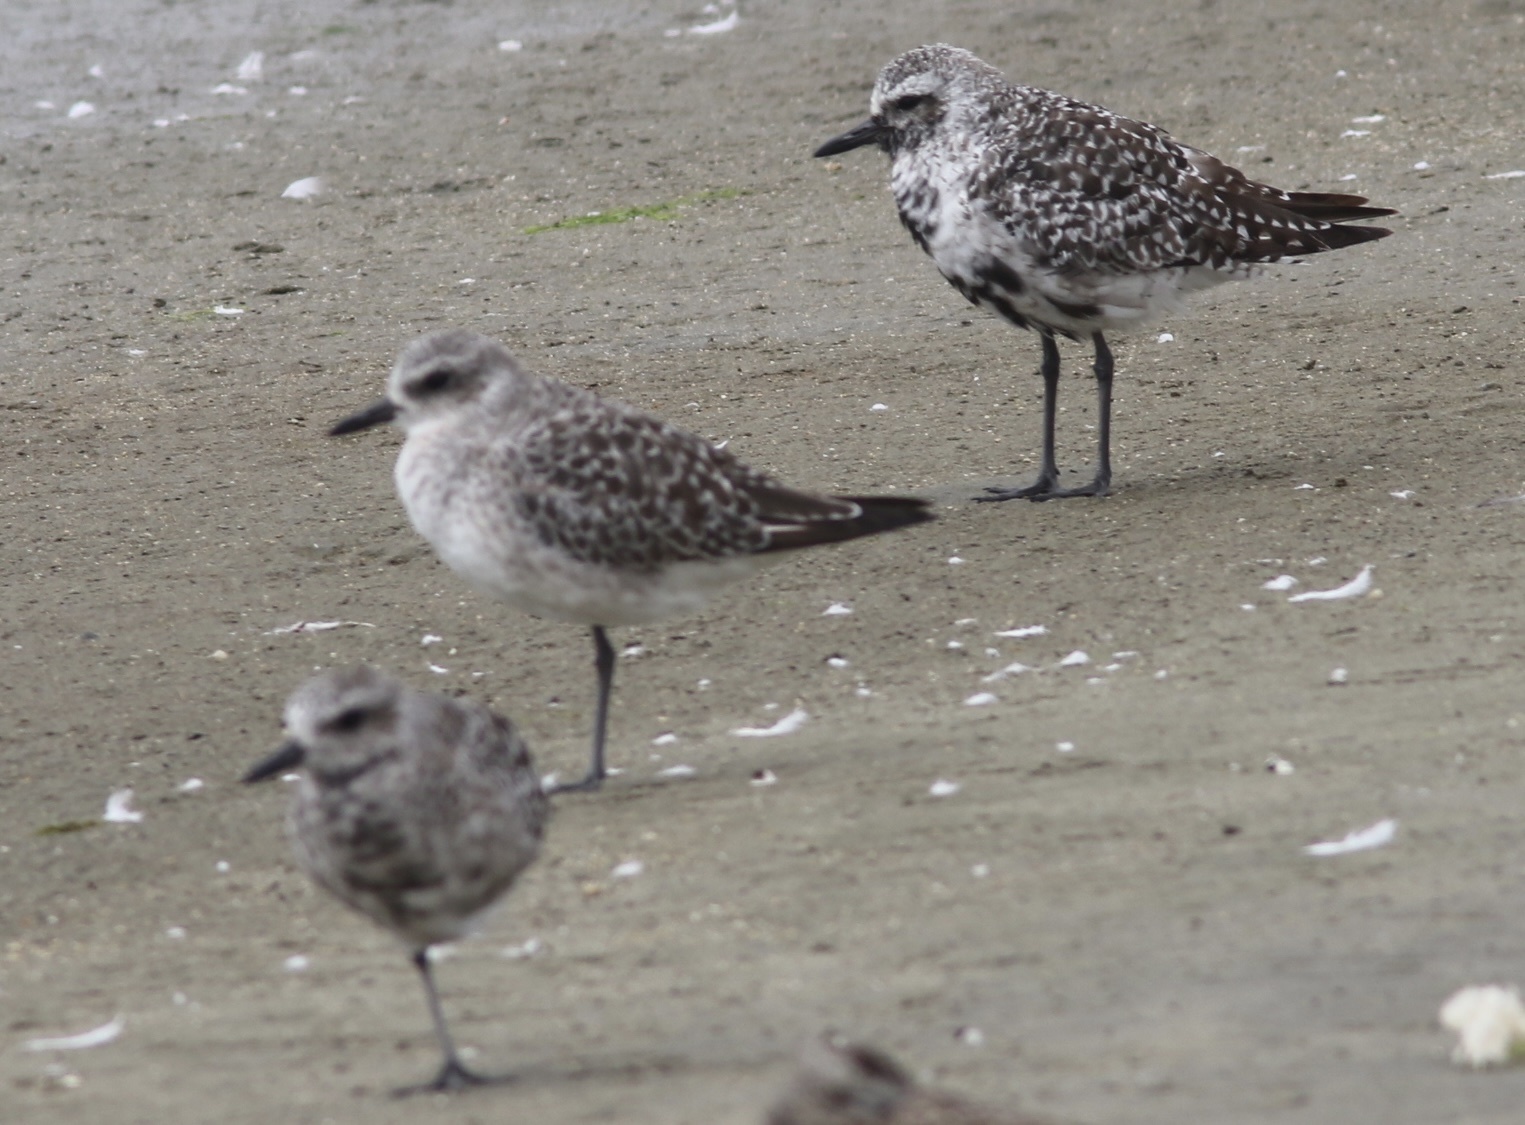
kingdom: Animalia
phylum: Chordata
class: Aves
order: Charadriiformes
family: Charadriidae
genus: Pluvialis
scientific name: Pluvialis squatarola
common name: Grey plover
